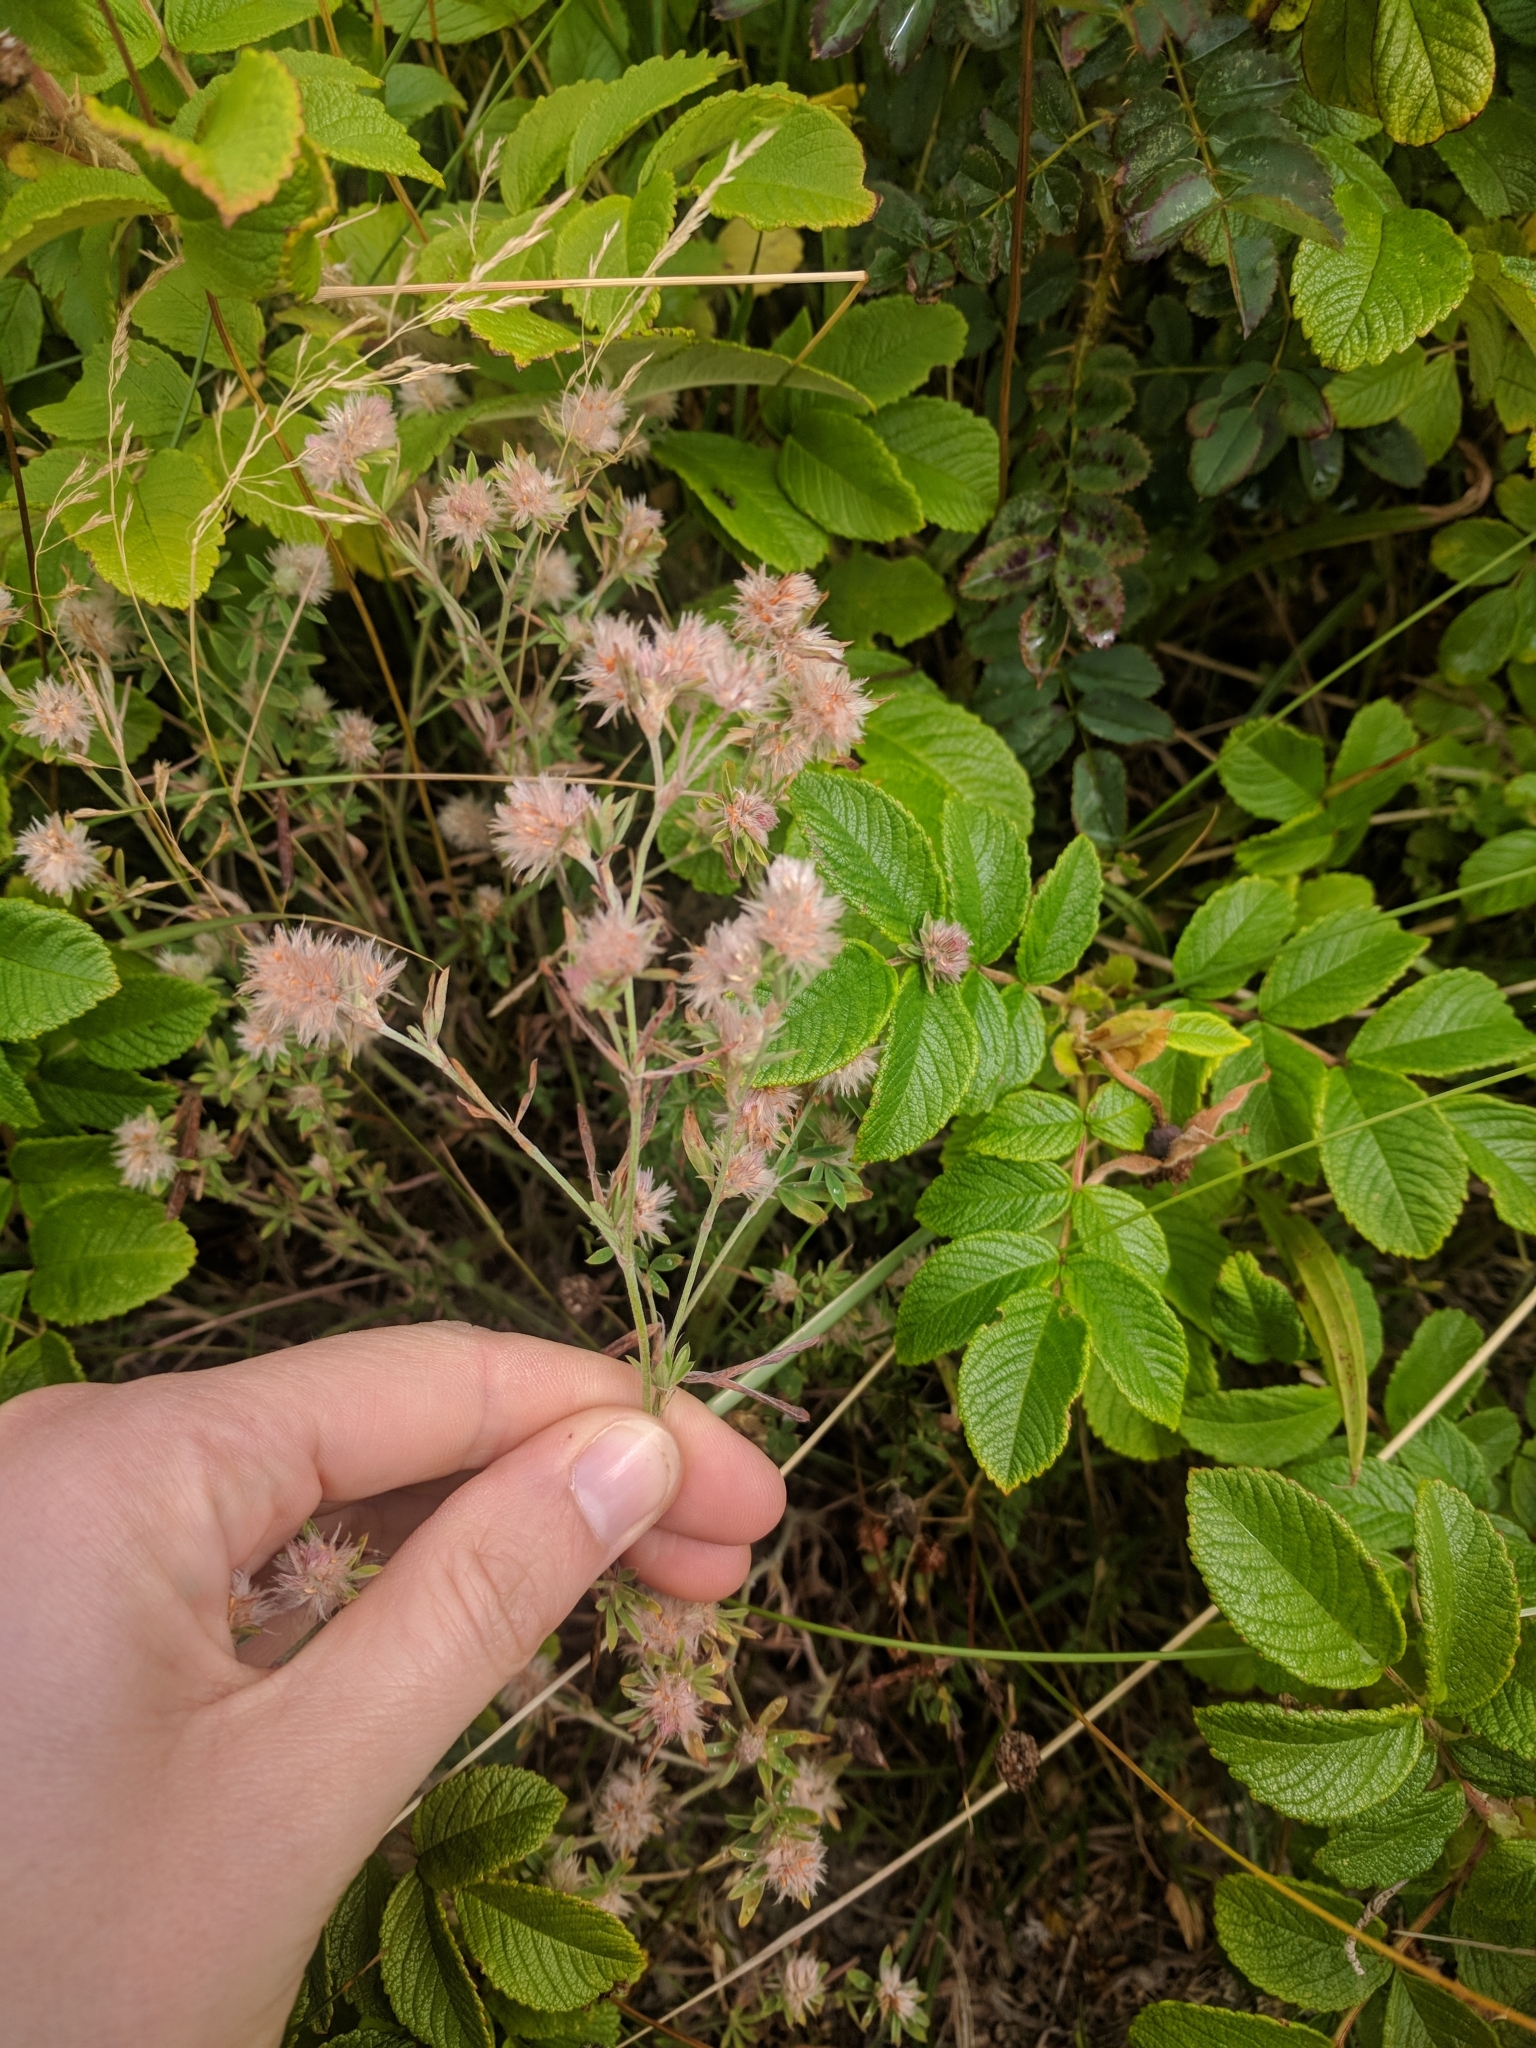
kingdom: Plantae
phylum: Tracheophyta
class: Magnoliopsida
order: Fabales
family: Fabaceae
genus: Trifolium
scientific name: Trifolium arvense
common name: Hare's-foot clover
